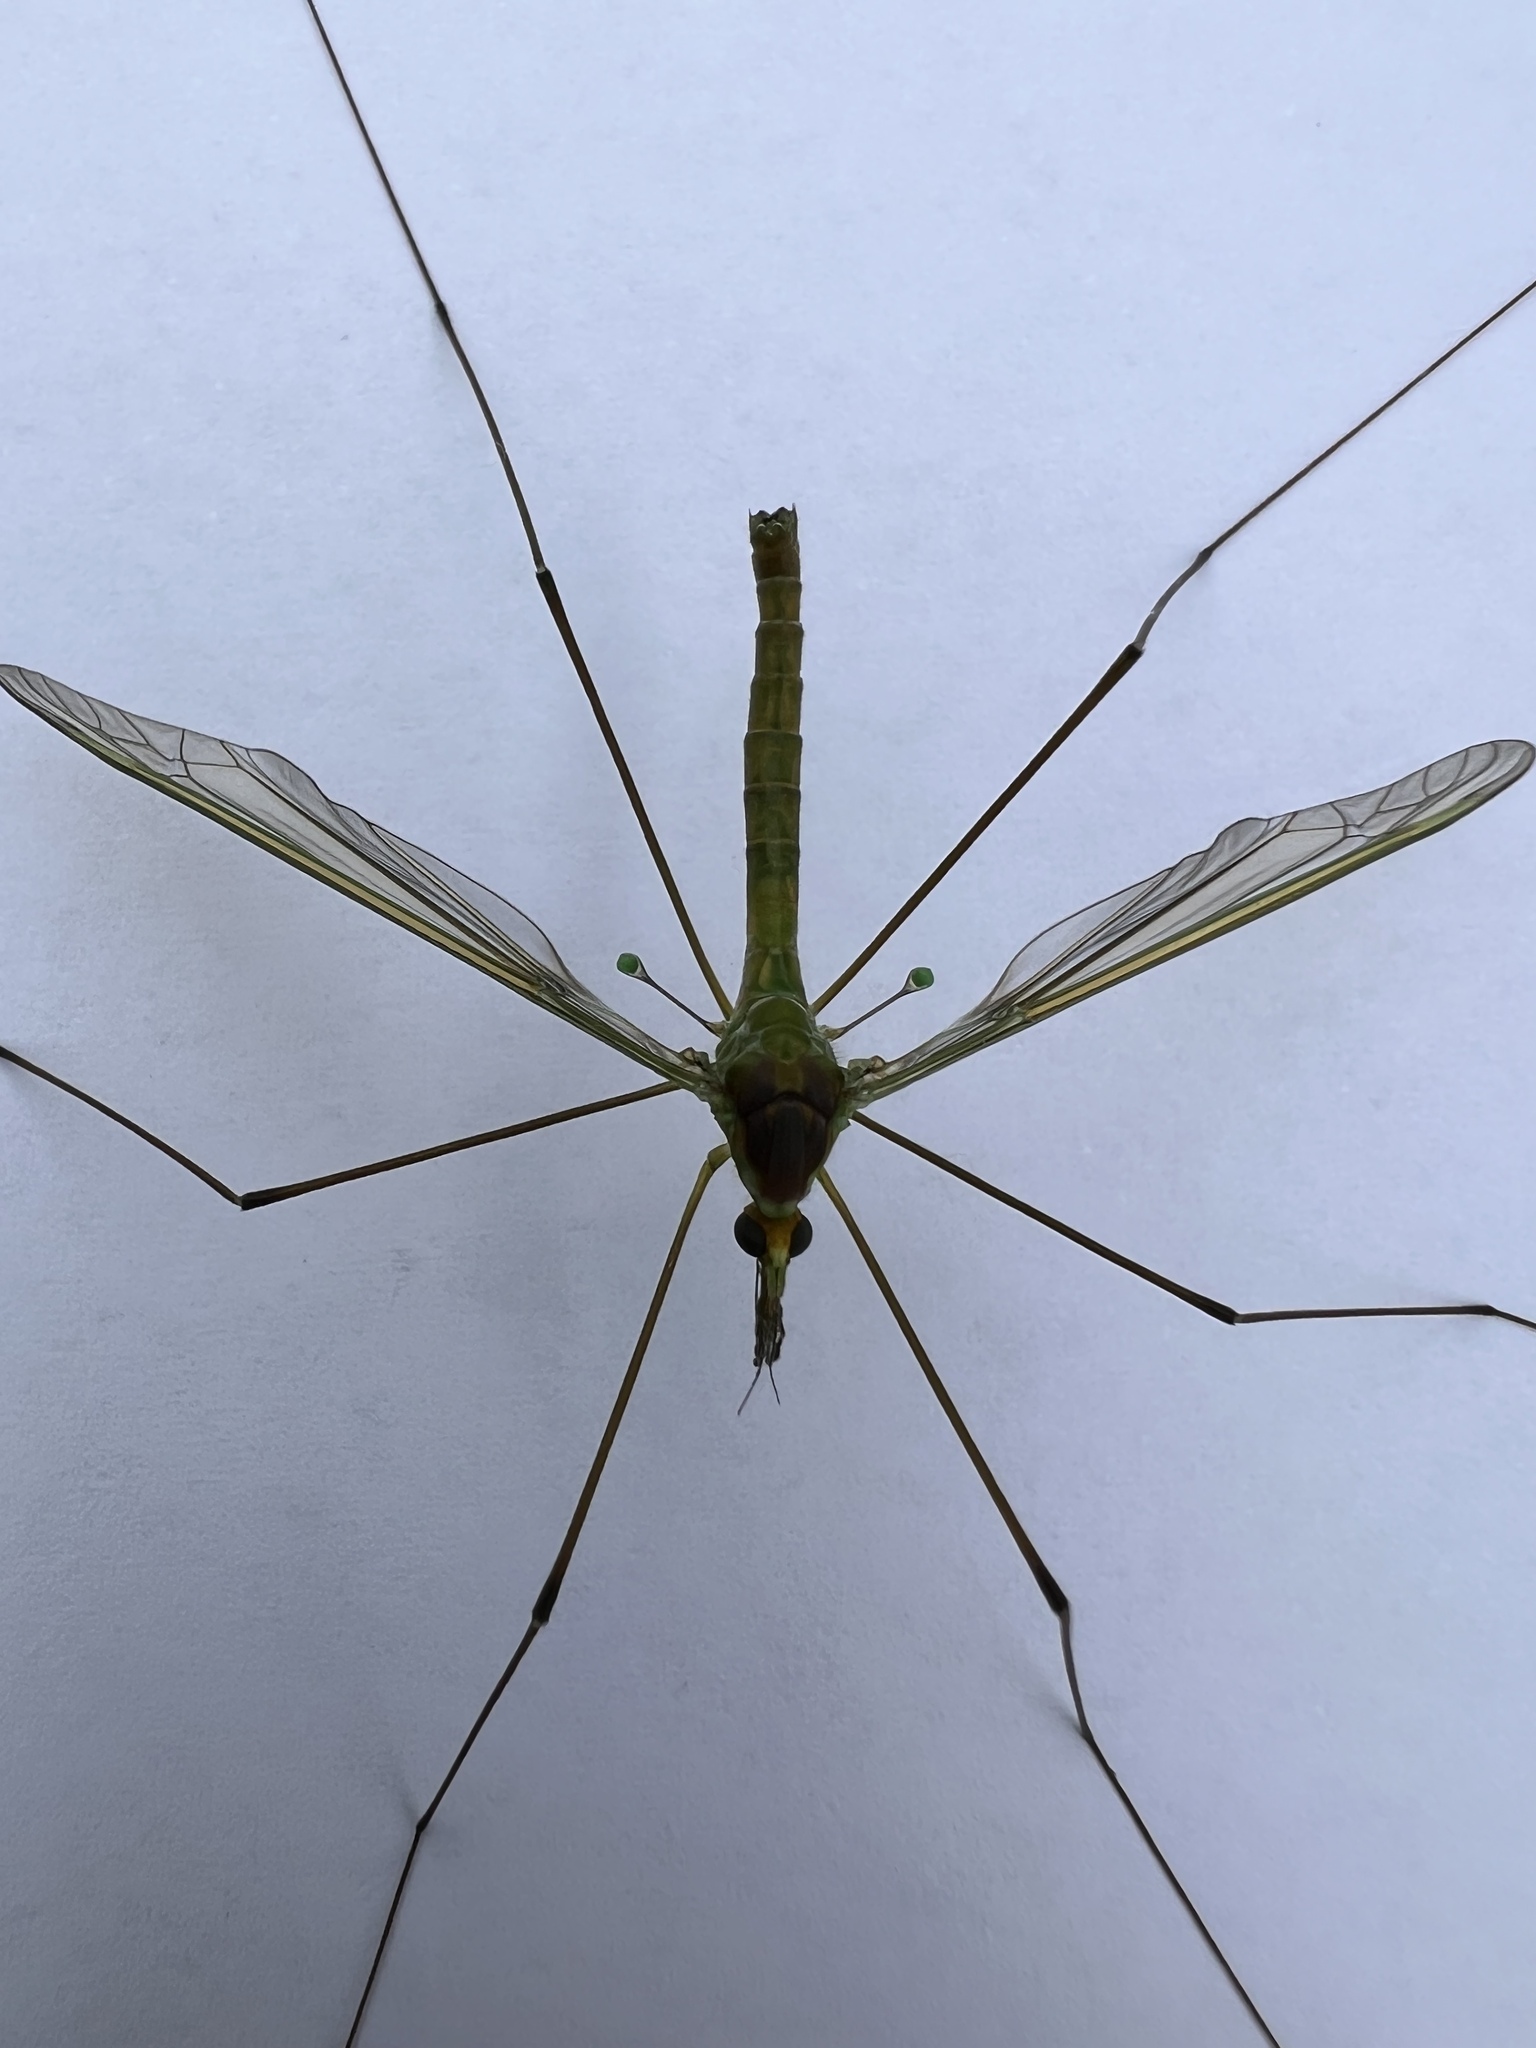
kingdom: Animalia
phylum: Arthropoda
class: Insecta
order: Diptera
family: Tipulidae
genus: Leptotarsus
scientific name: Leptotarsus albistigma
